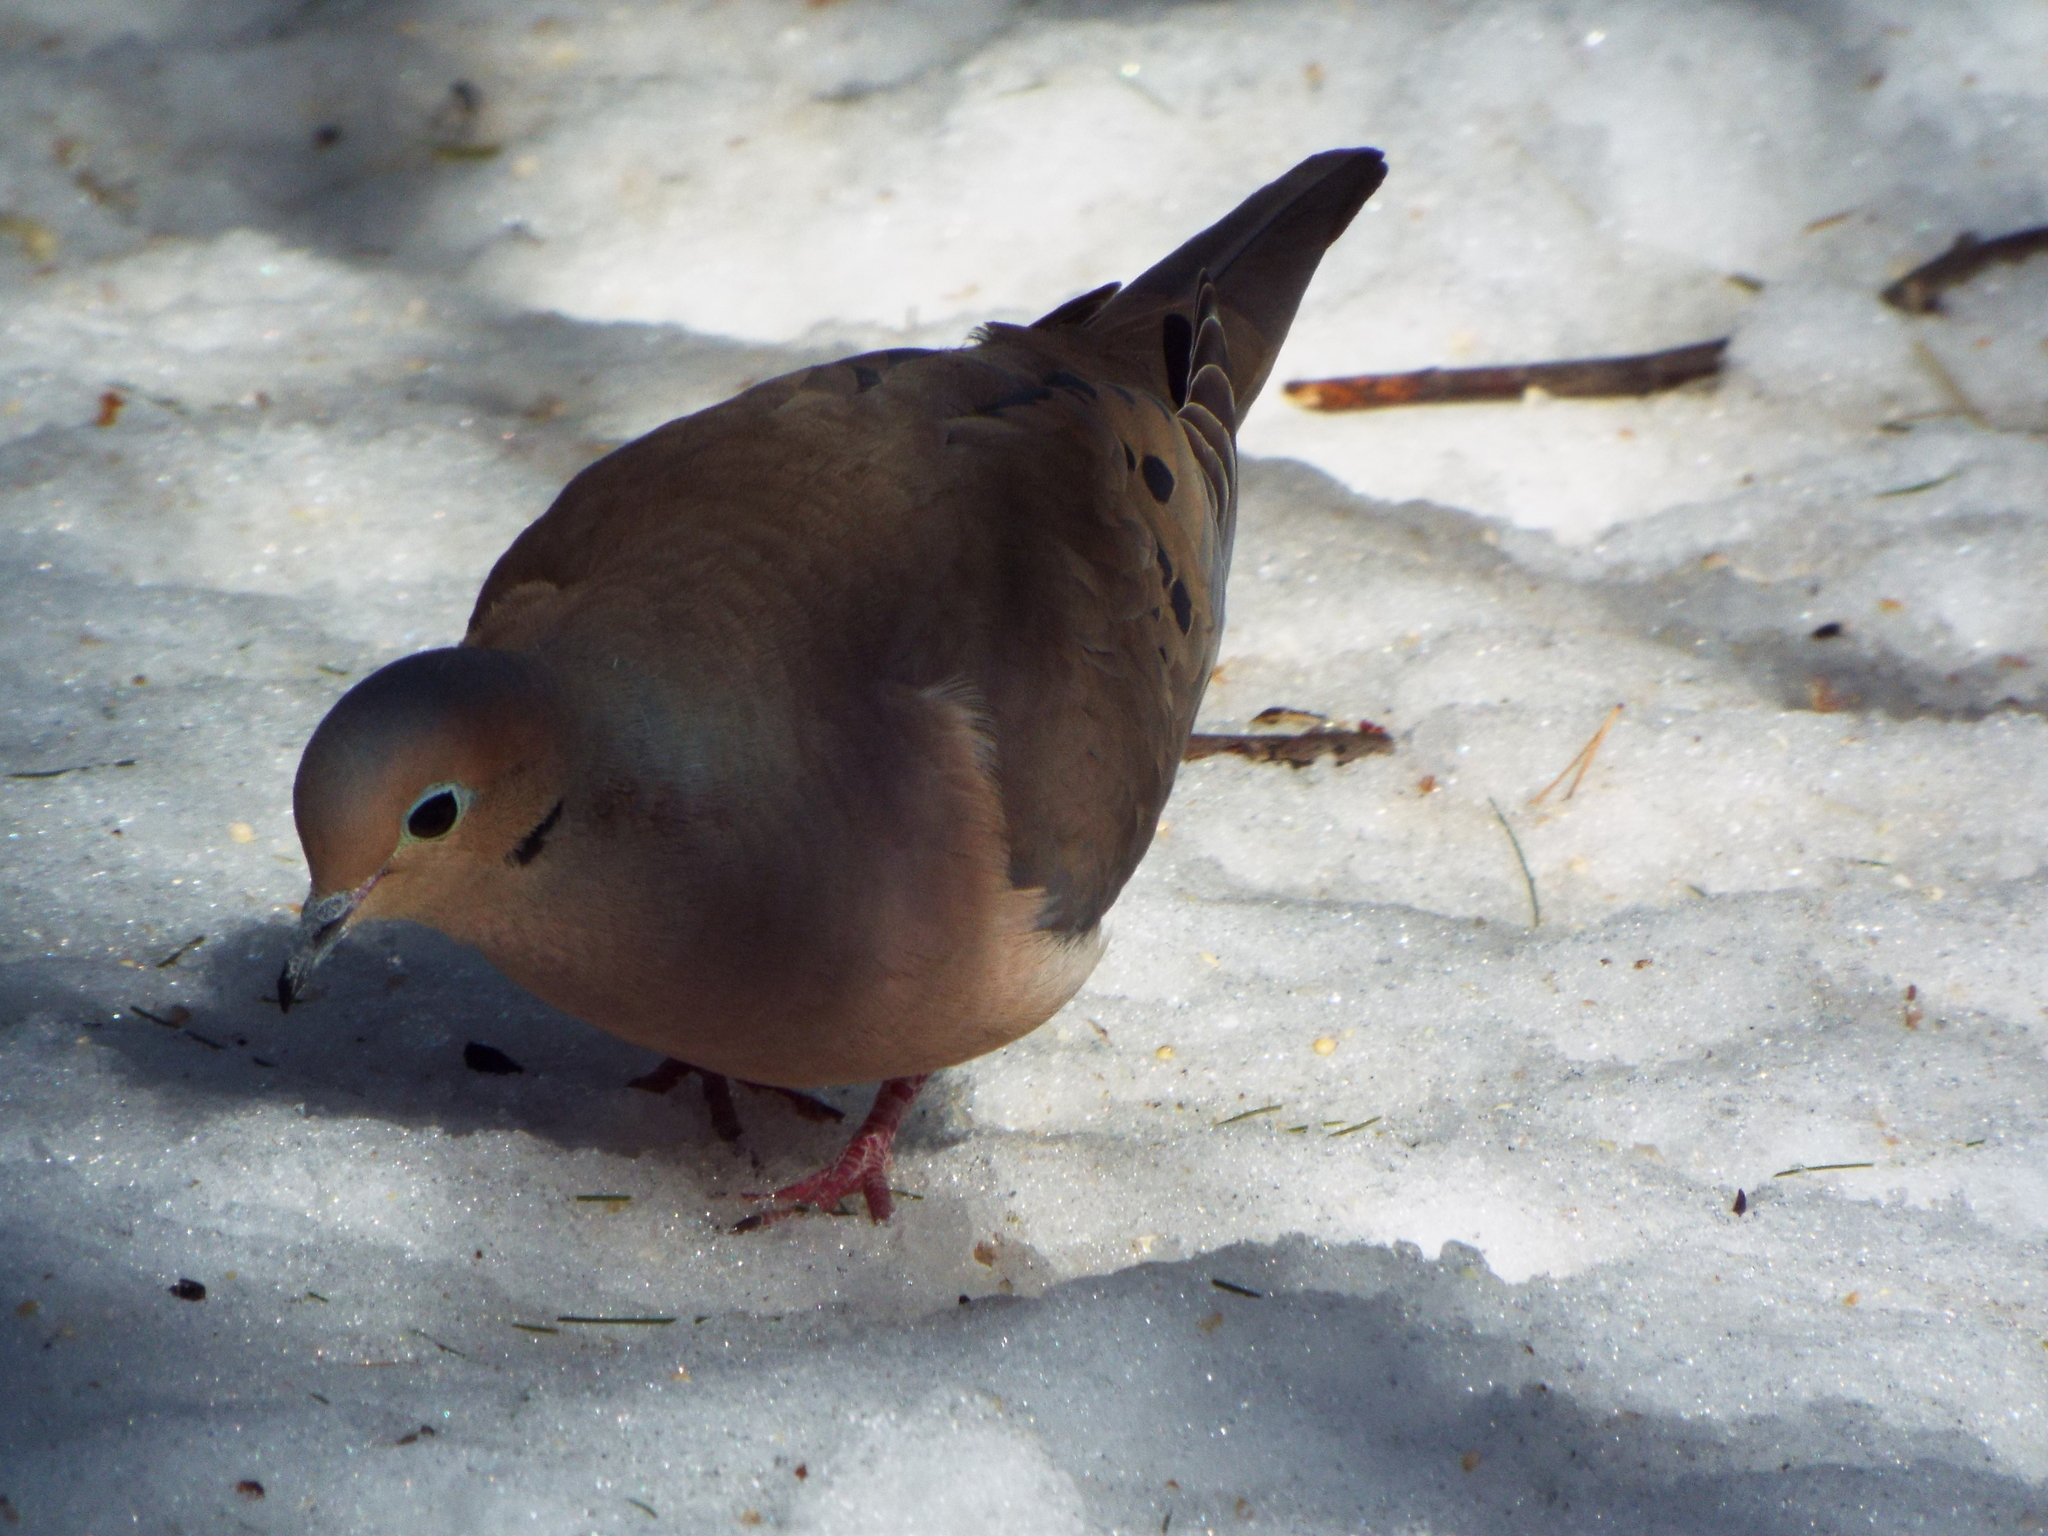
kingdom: Animalia
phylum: Chordata
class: Aves
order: Columbiformes
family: Columbidae
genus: Zenaida
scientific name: Zenaida macroura
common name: Mourning dove
